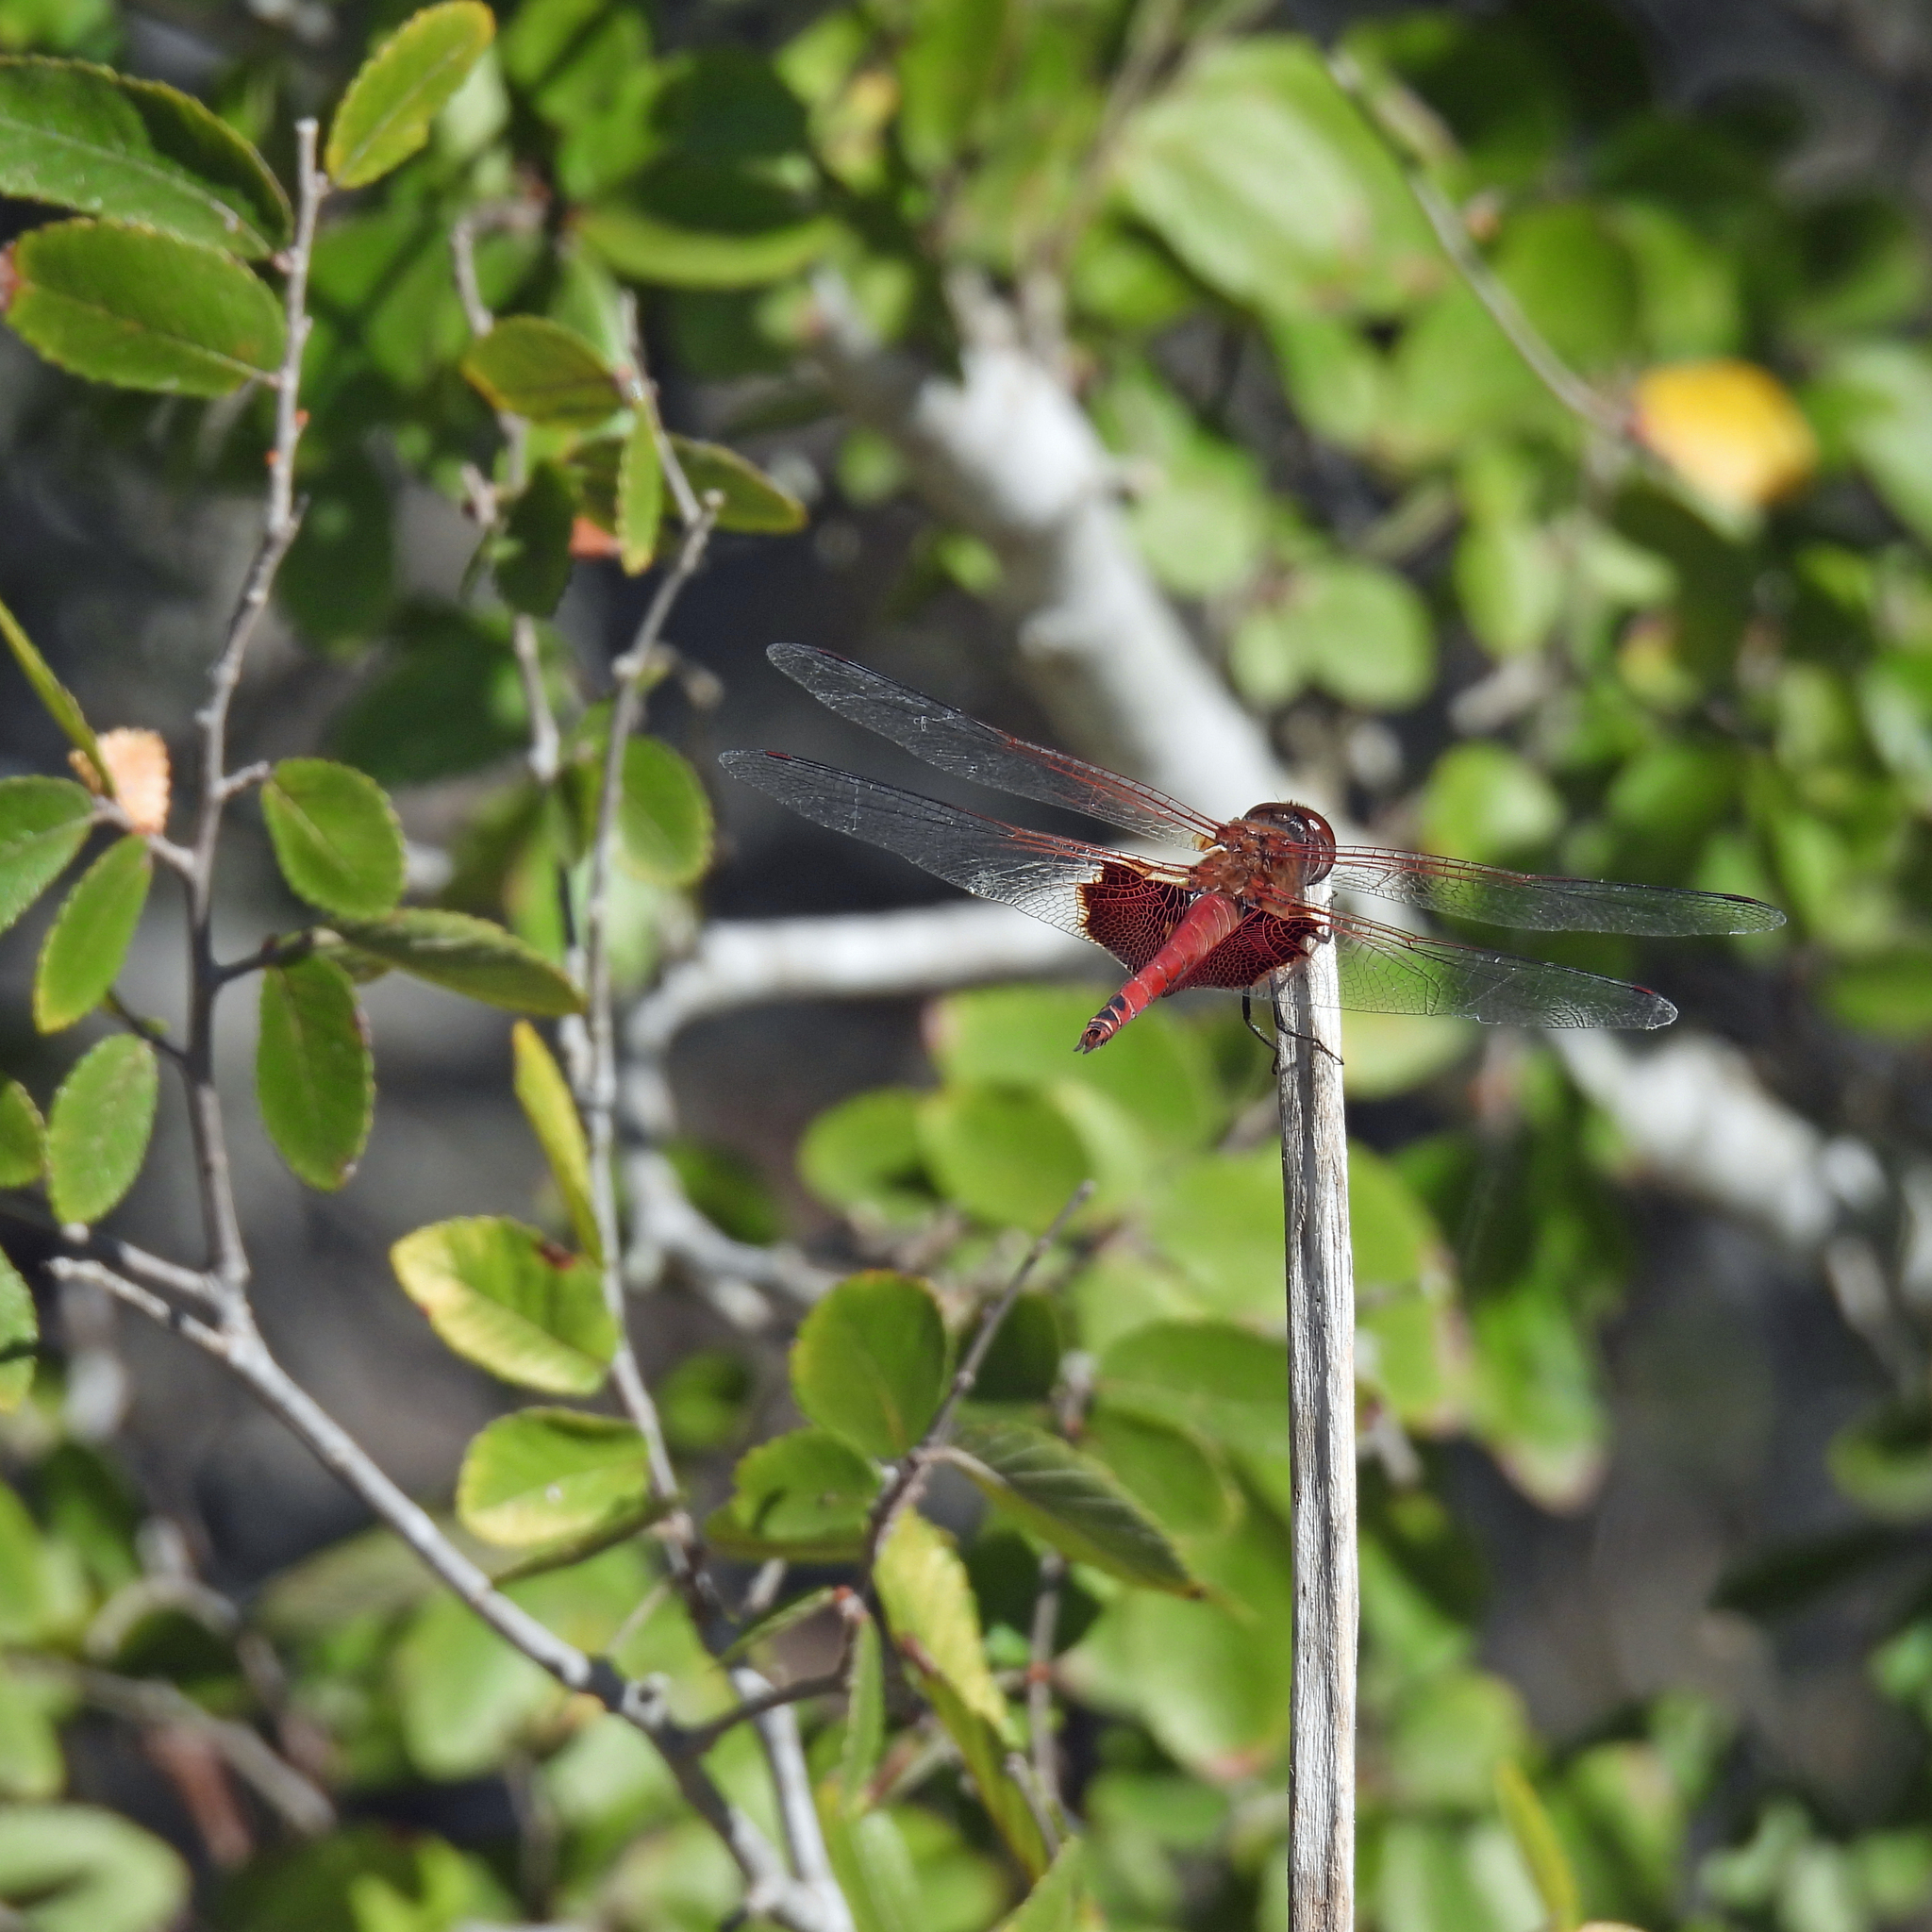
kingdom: Animalia
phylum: Arthropoda
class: Insecta
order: Odonata
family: Libellulidae
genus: Tramea
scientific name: Tramea onusta
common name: Red saddlebags
